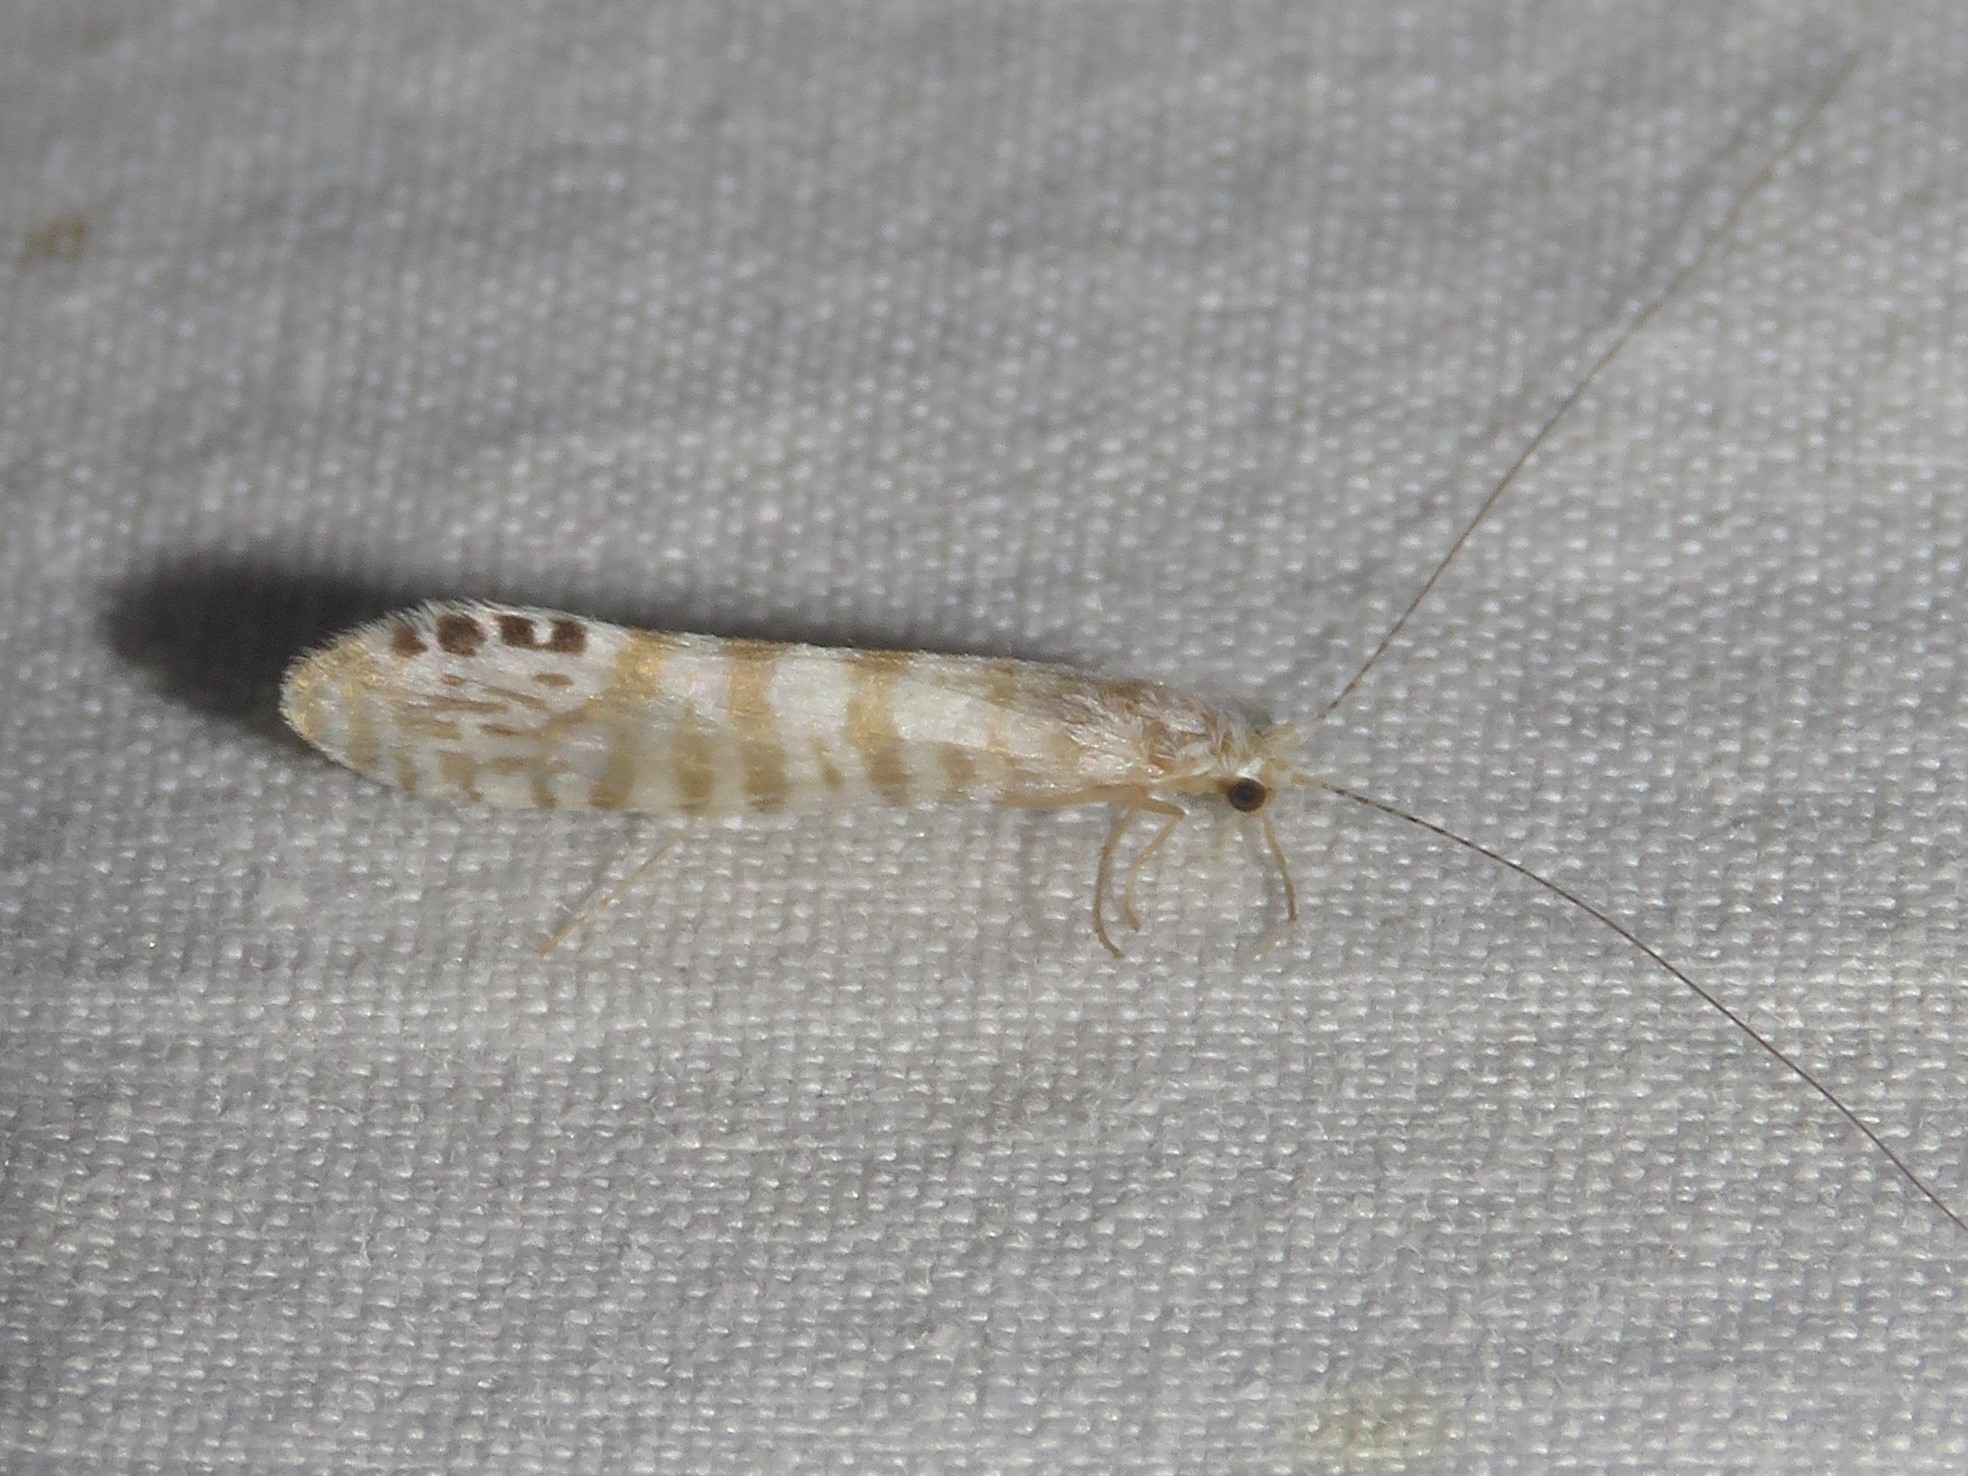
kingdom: Animalia
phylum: Arthropoda
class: Insecta
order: Trichoptera
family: Leptoceridae
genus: Nectopsyche
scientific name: Nectopsyche exquisita
